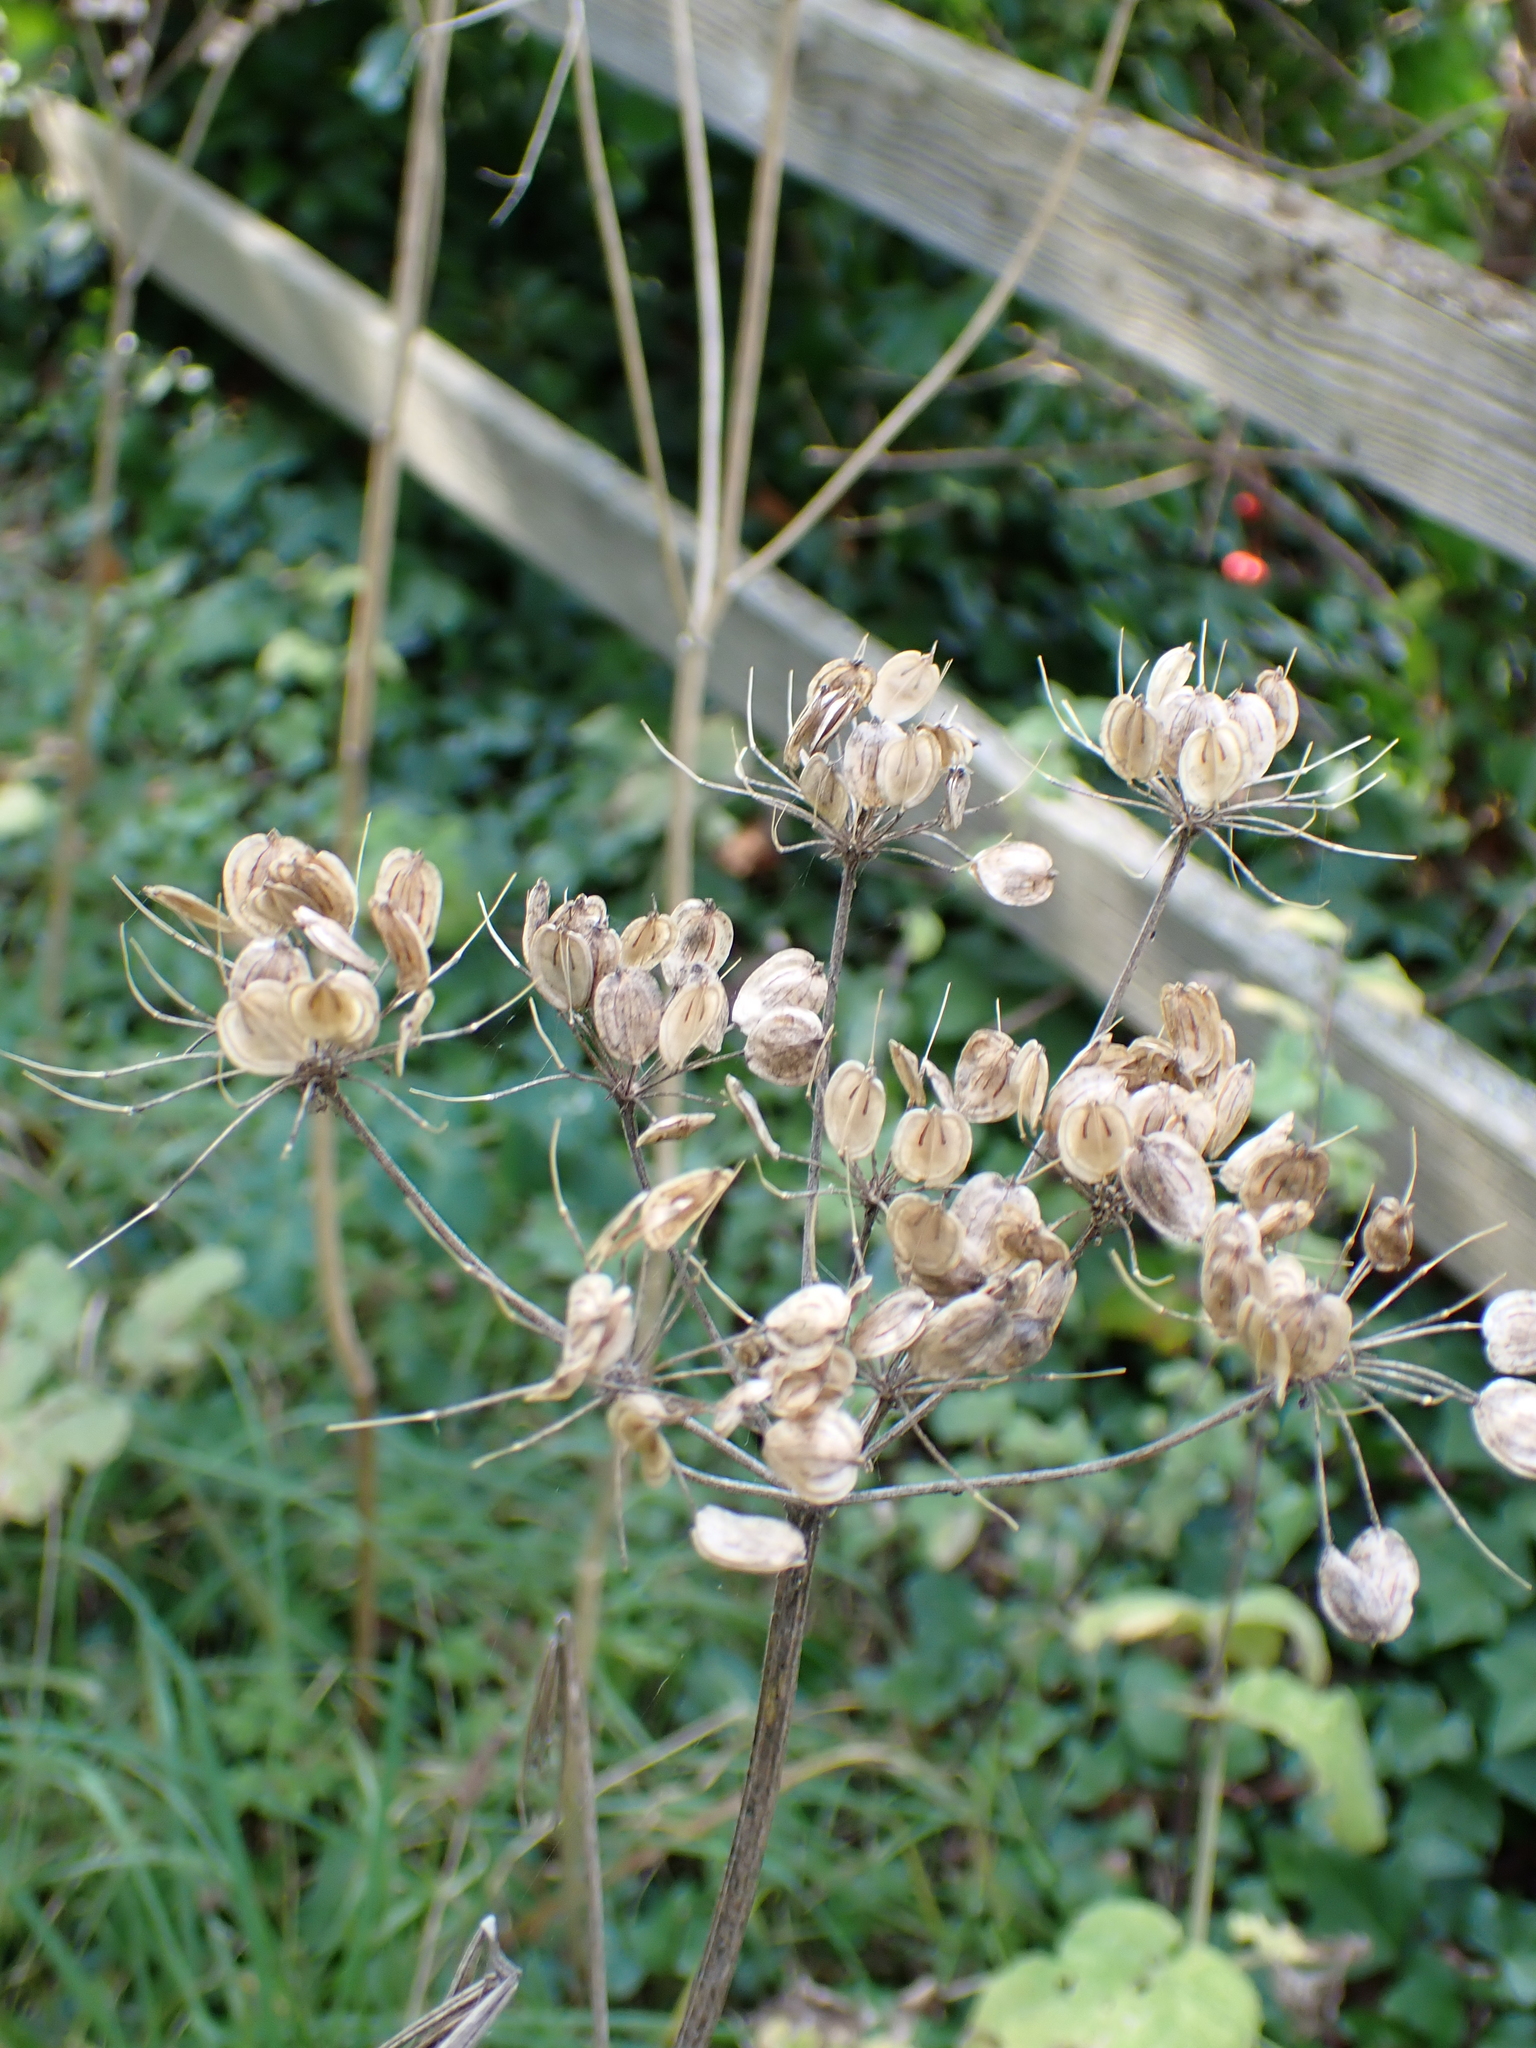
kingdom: Plantae
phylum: Tracheophyta
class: Magnoliopsida
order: Apiales
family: Apiaceae
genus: Heracleum
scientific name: Heracleum sphondylium
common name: Hogweed
